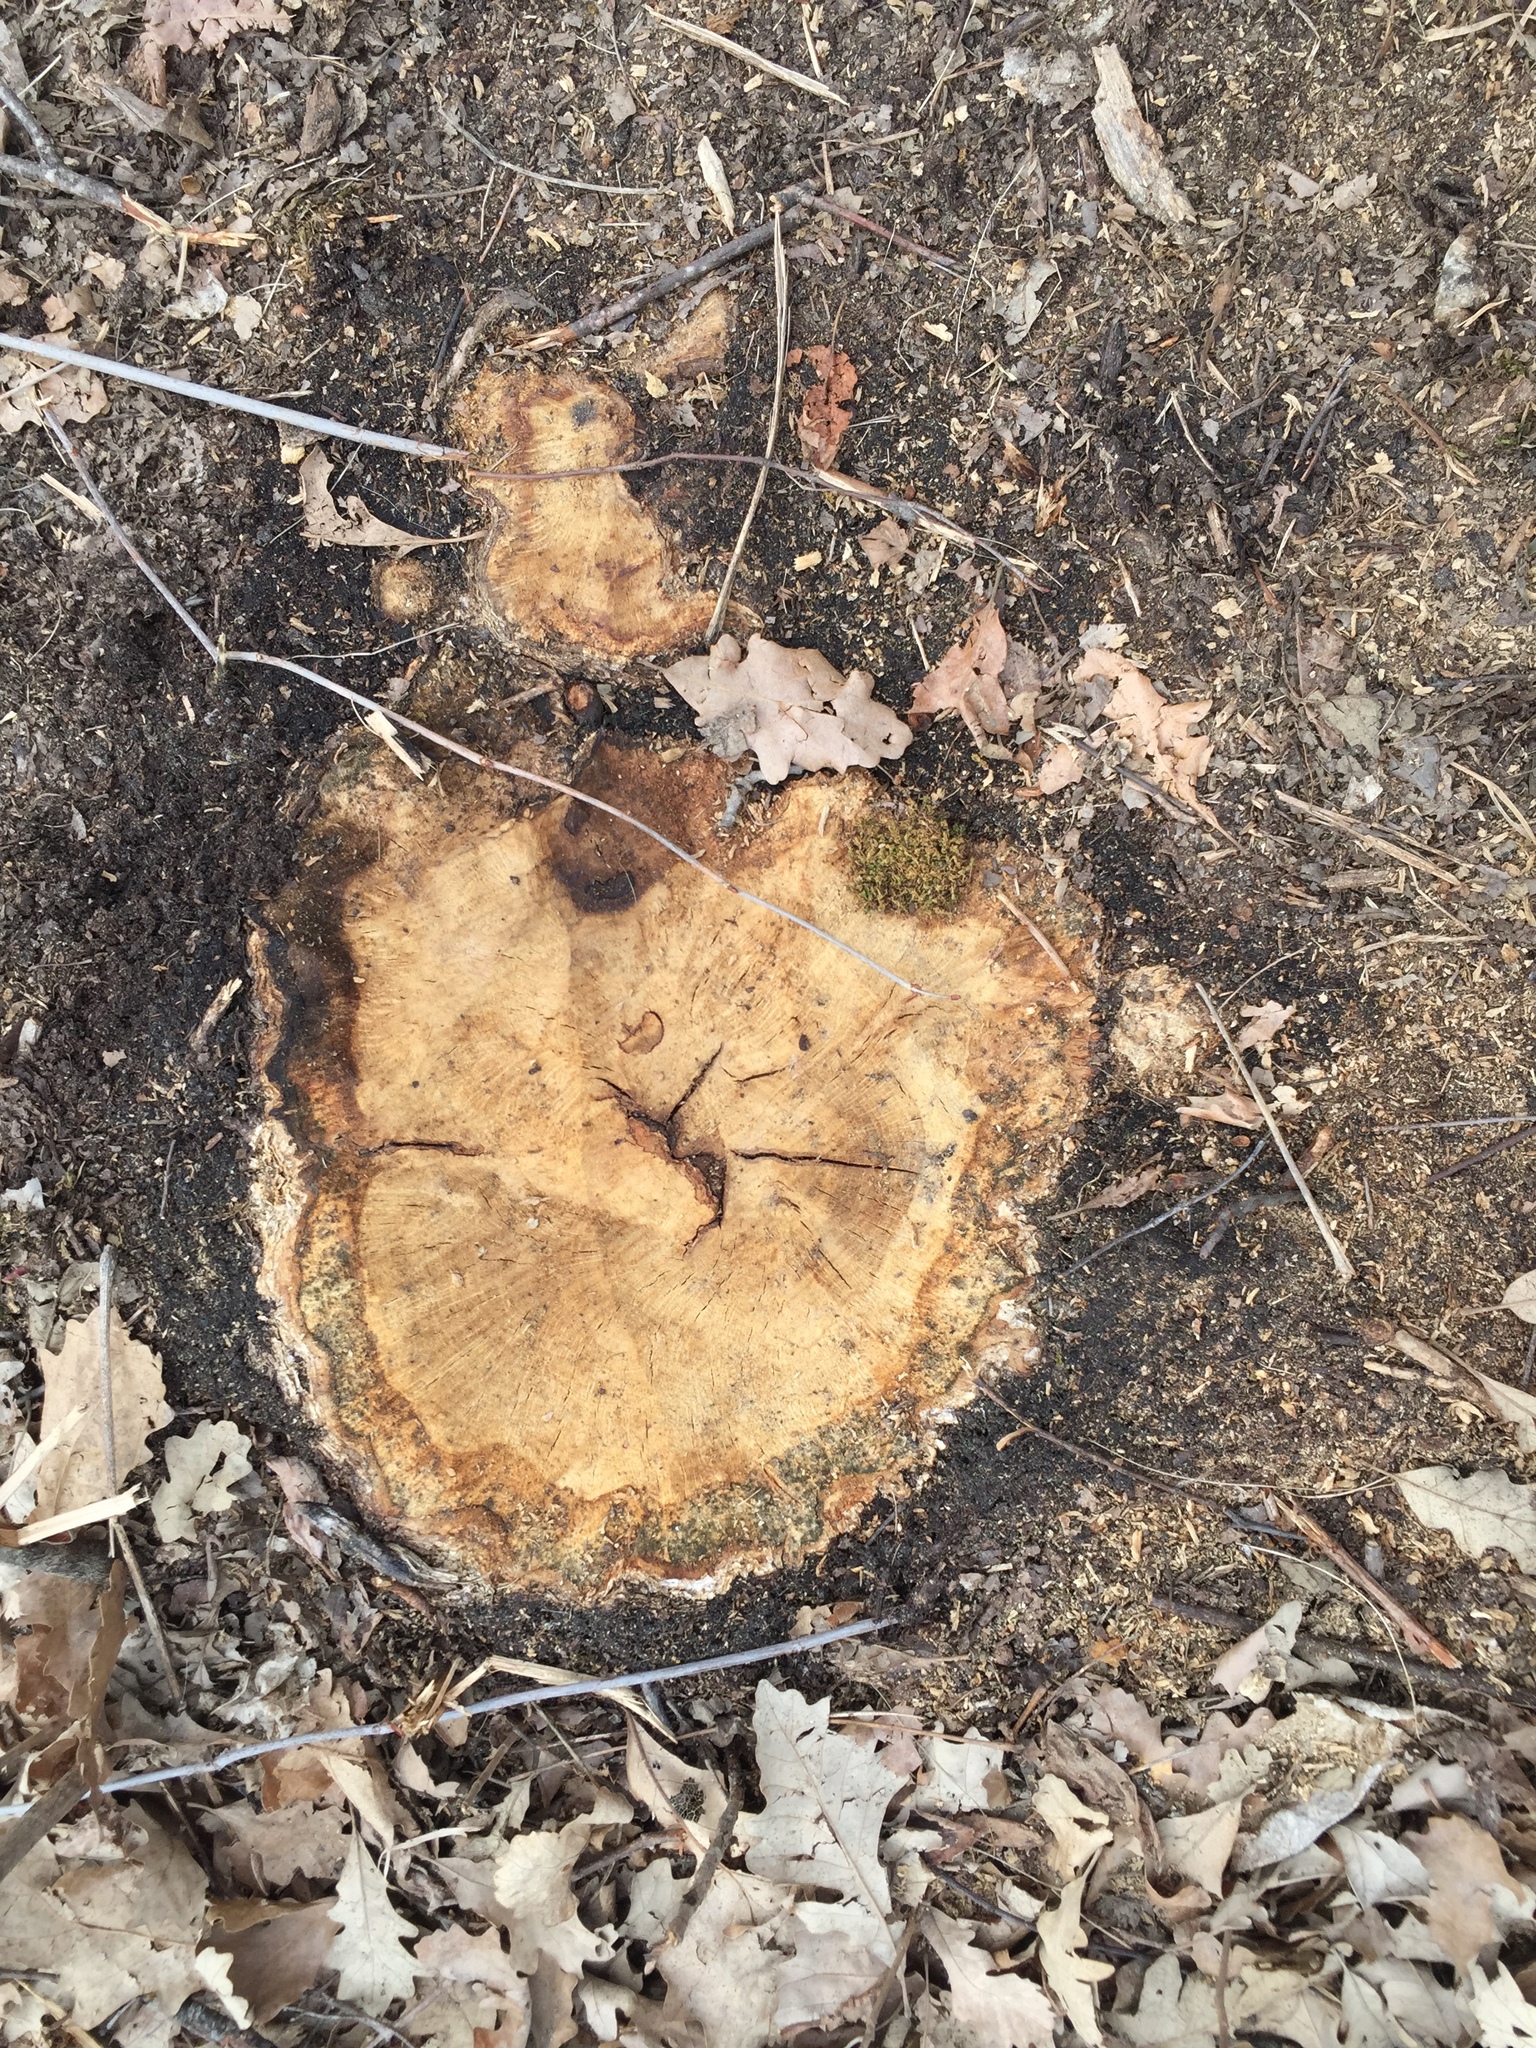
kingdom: Plantae
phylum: Tracheophyta
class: Magnoliopsida
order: Fagales
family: Fagaceae
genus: Quercus
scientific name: Quercus macrocarpa
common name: Bur oak
